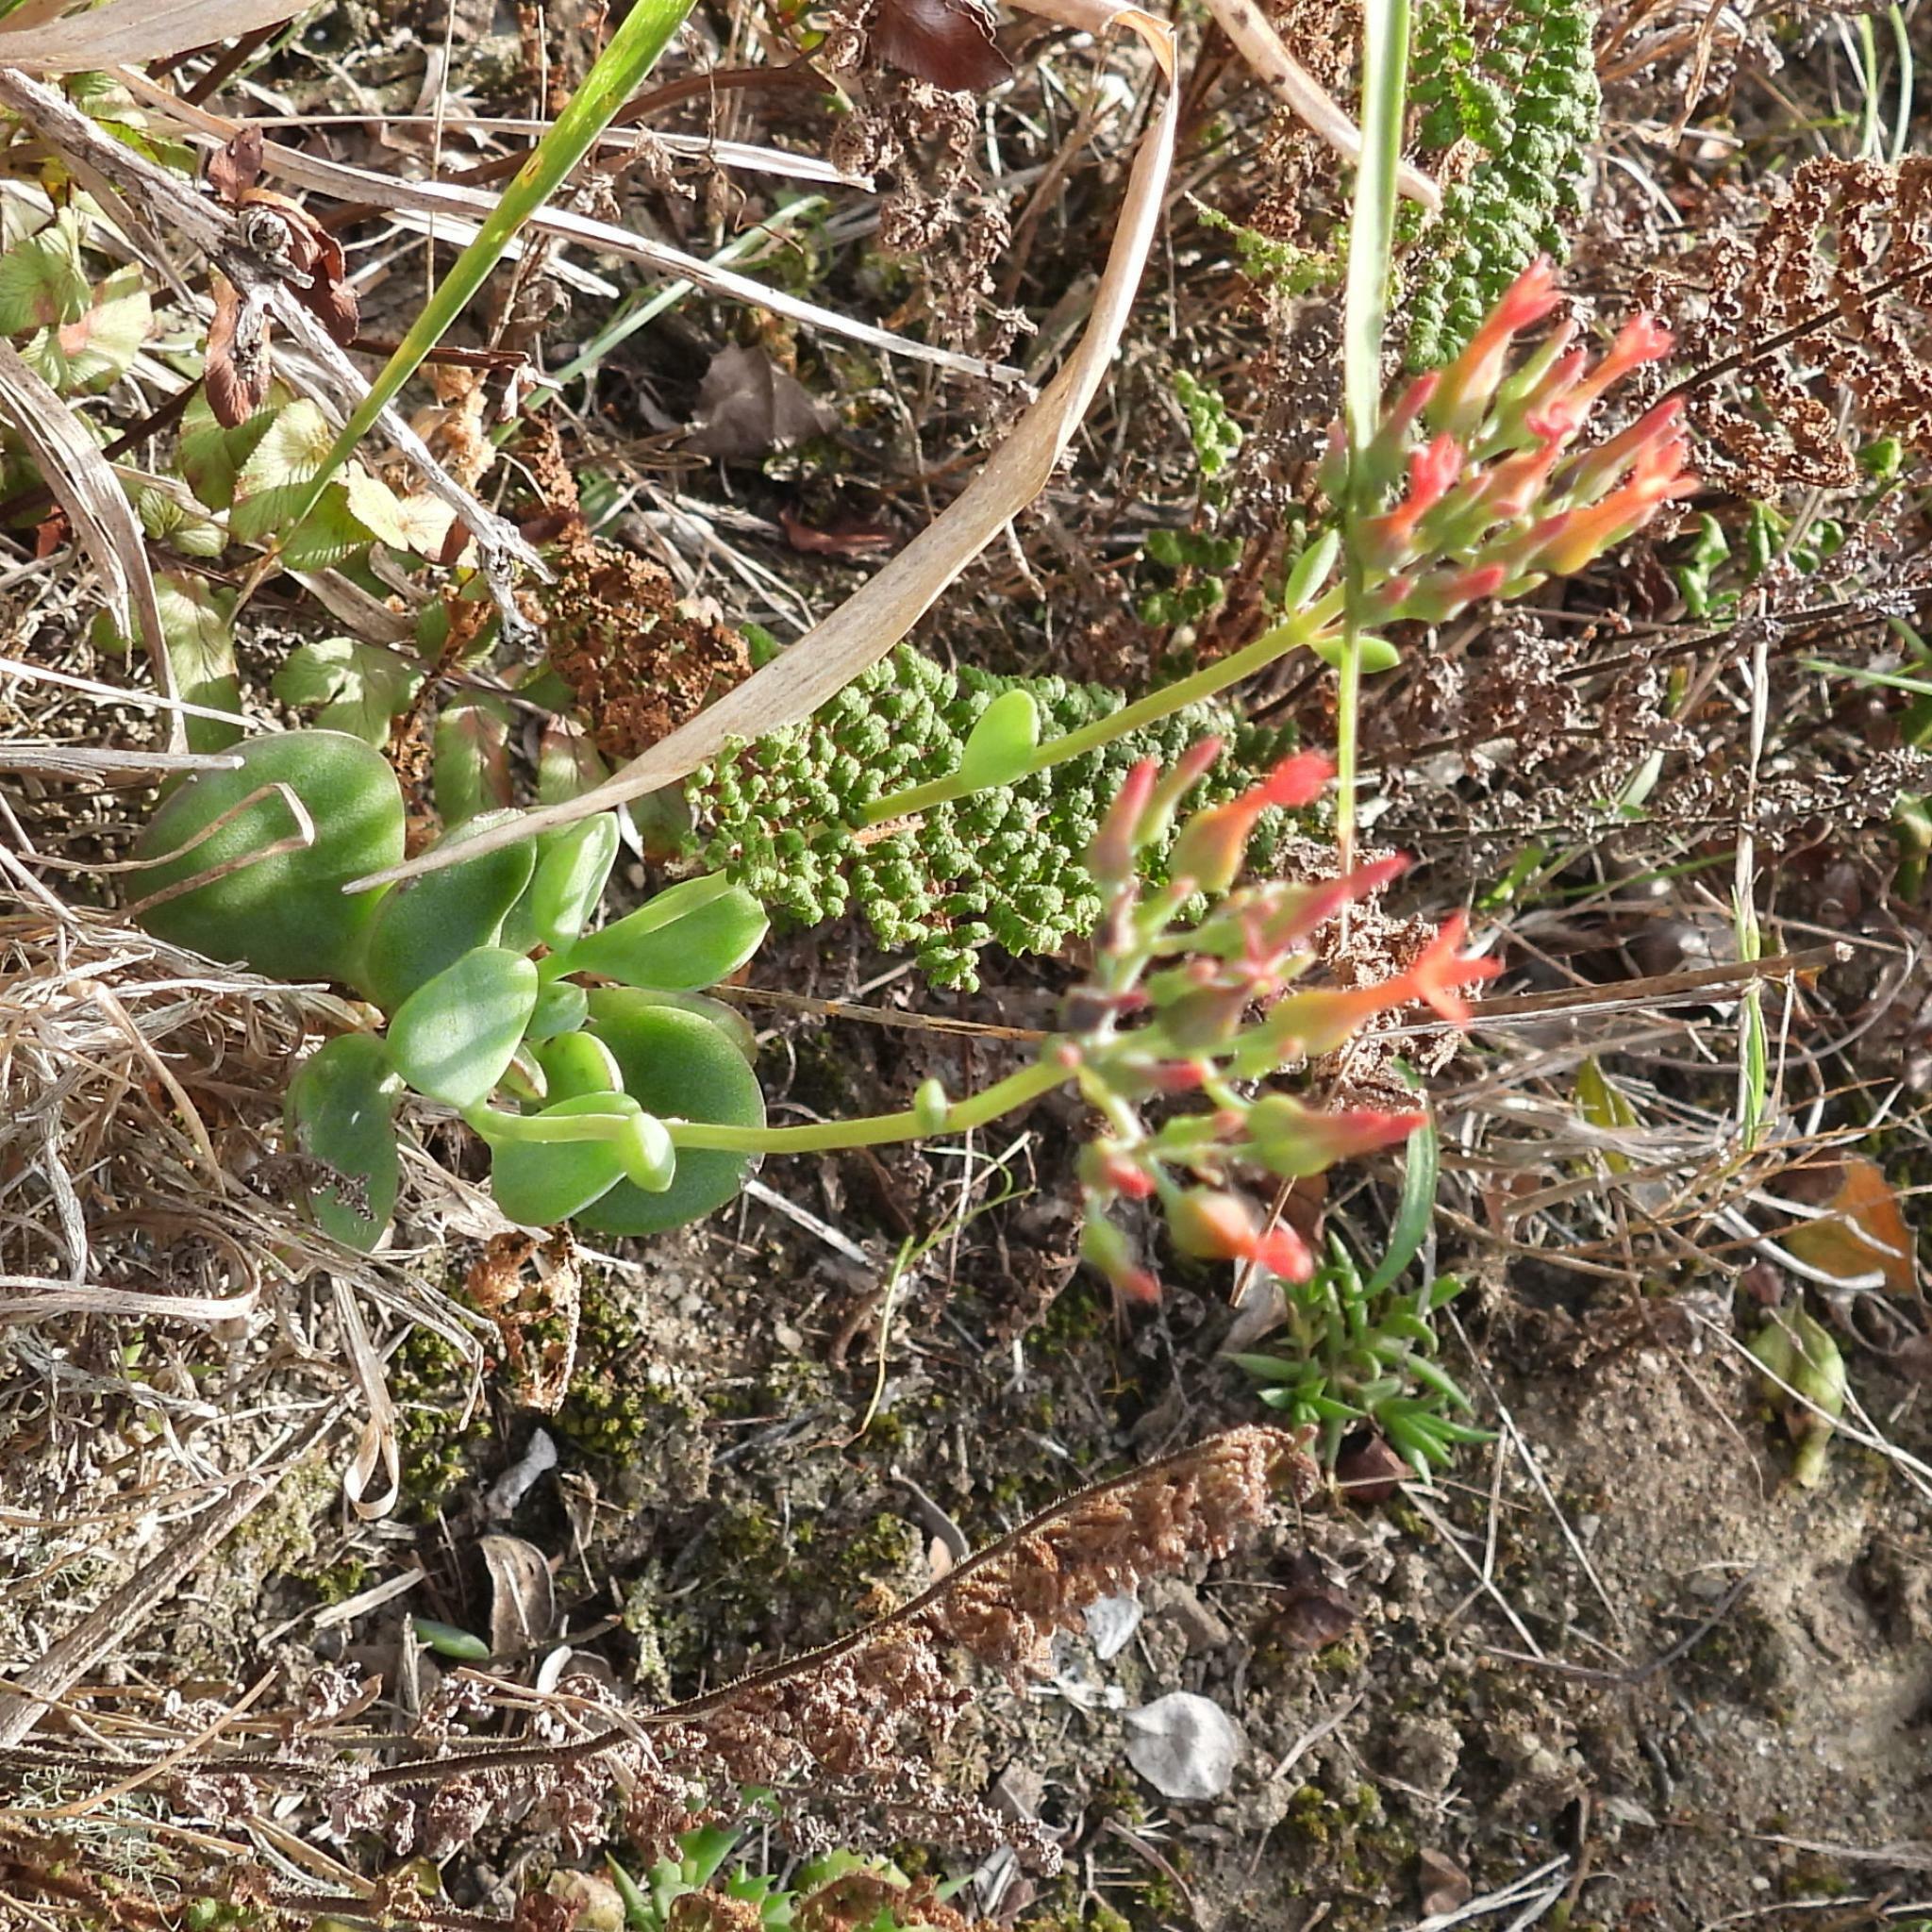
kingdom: Plantae
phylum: Tracheophyta
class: Magnoliopsida
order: Saxifragales
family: Crassulaceae
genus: Kalanchoe
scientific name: Kalanchoe rotundifolia
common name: Common kalanchoe
